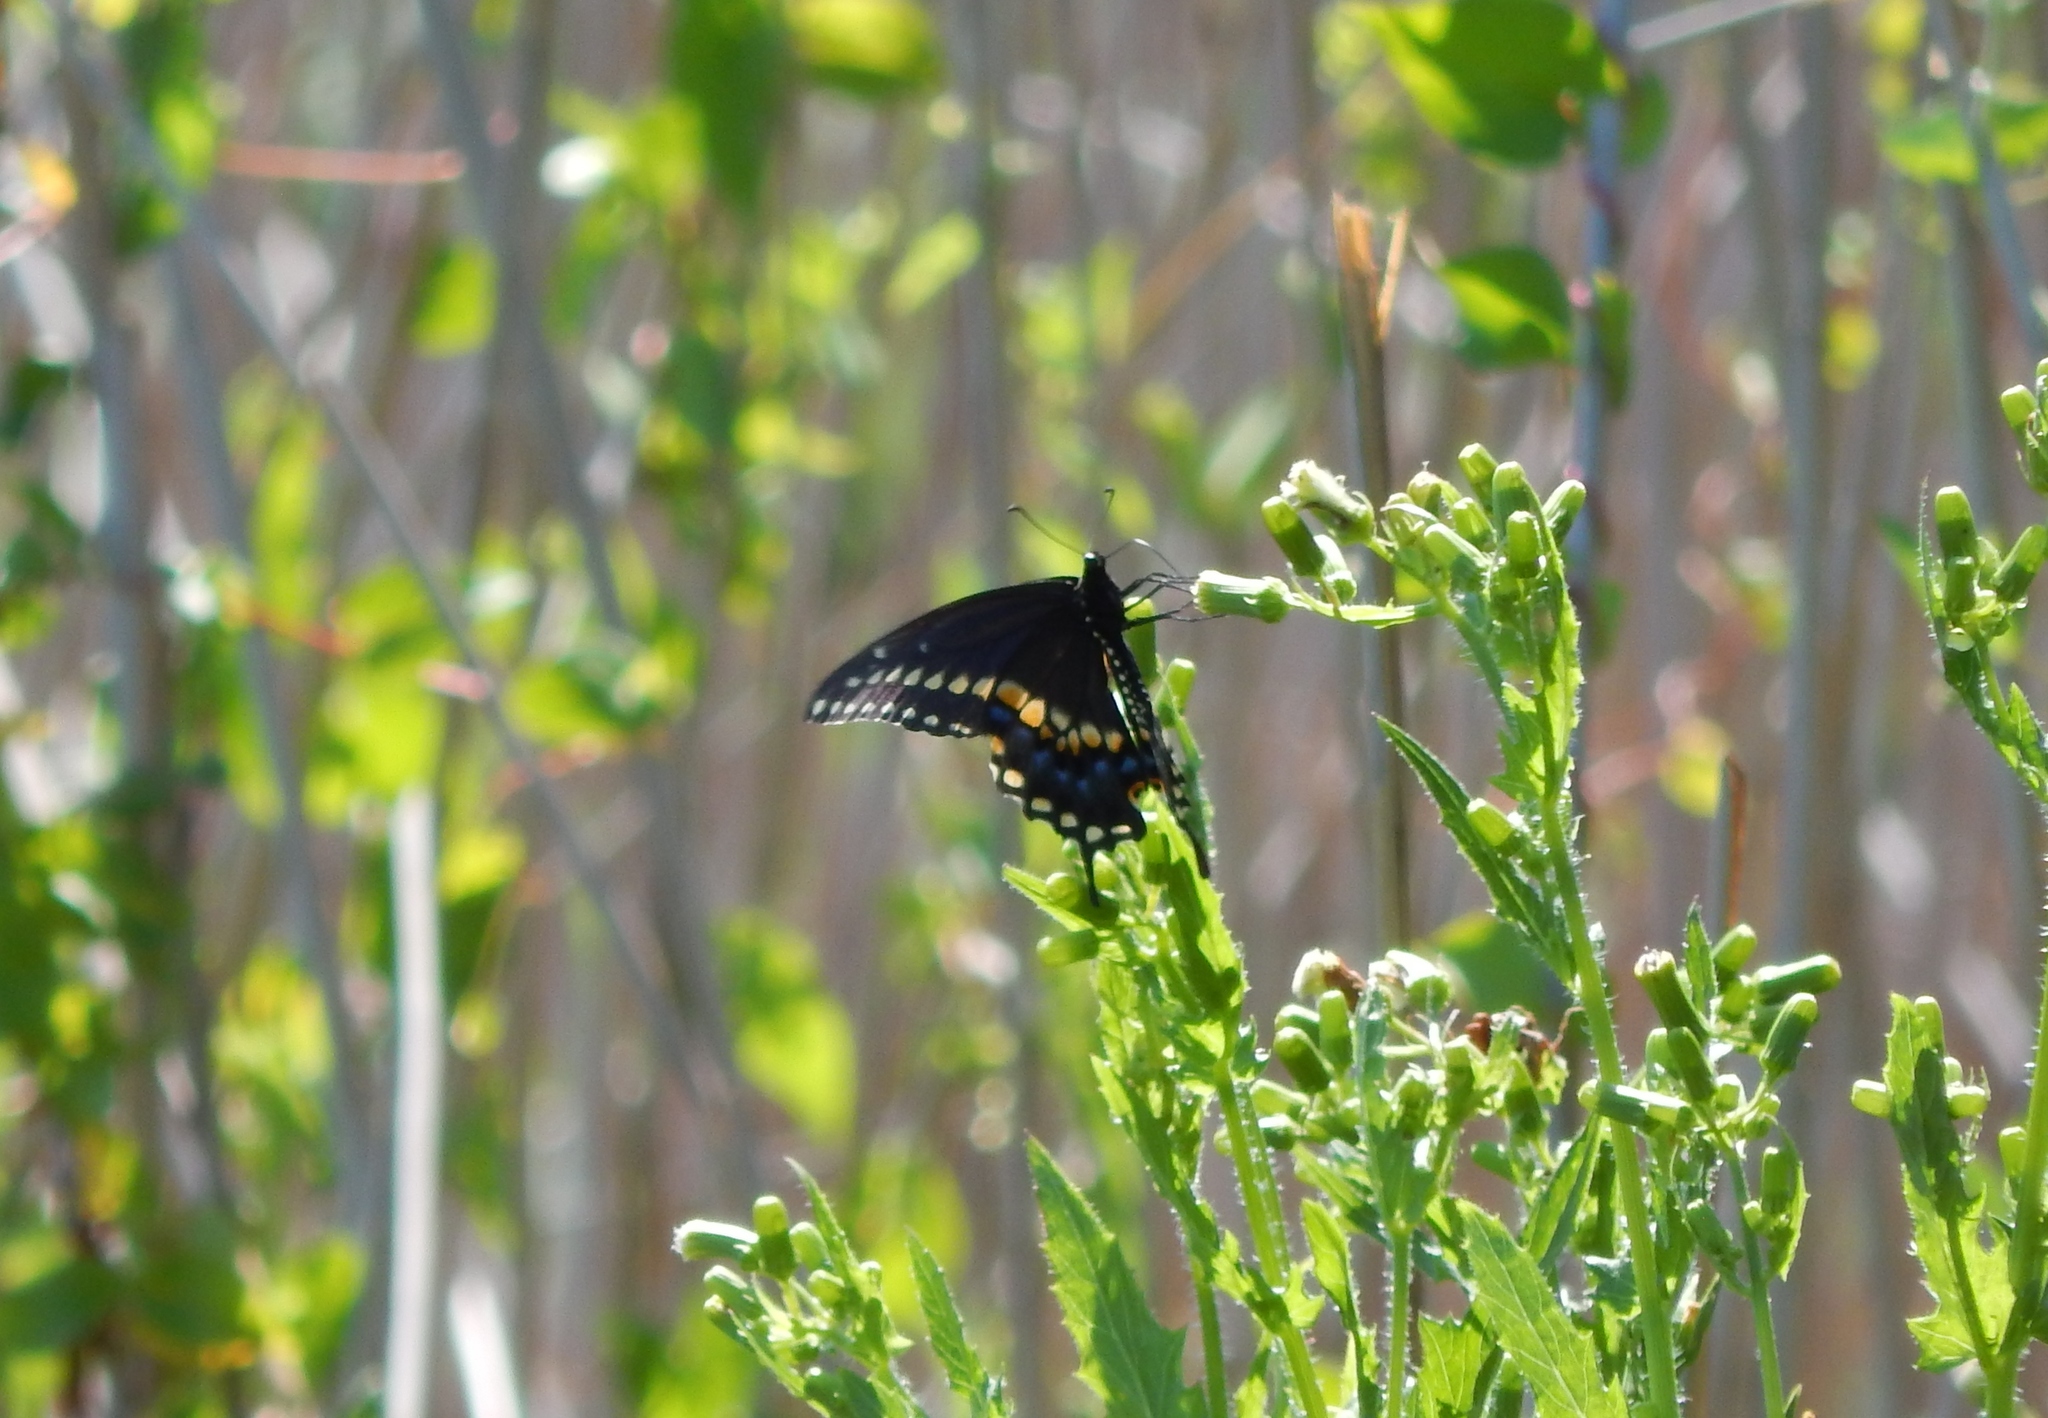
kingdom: Animalia
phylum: Arthropoda
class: Insecta
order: Lepidoptera
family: Papilionidae
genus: Papilio
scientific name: Papilio polyxenes
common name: Black swallowtail
